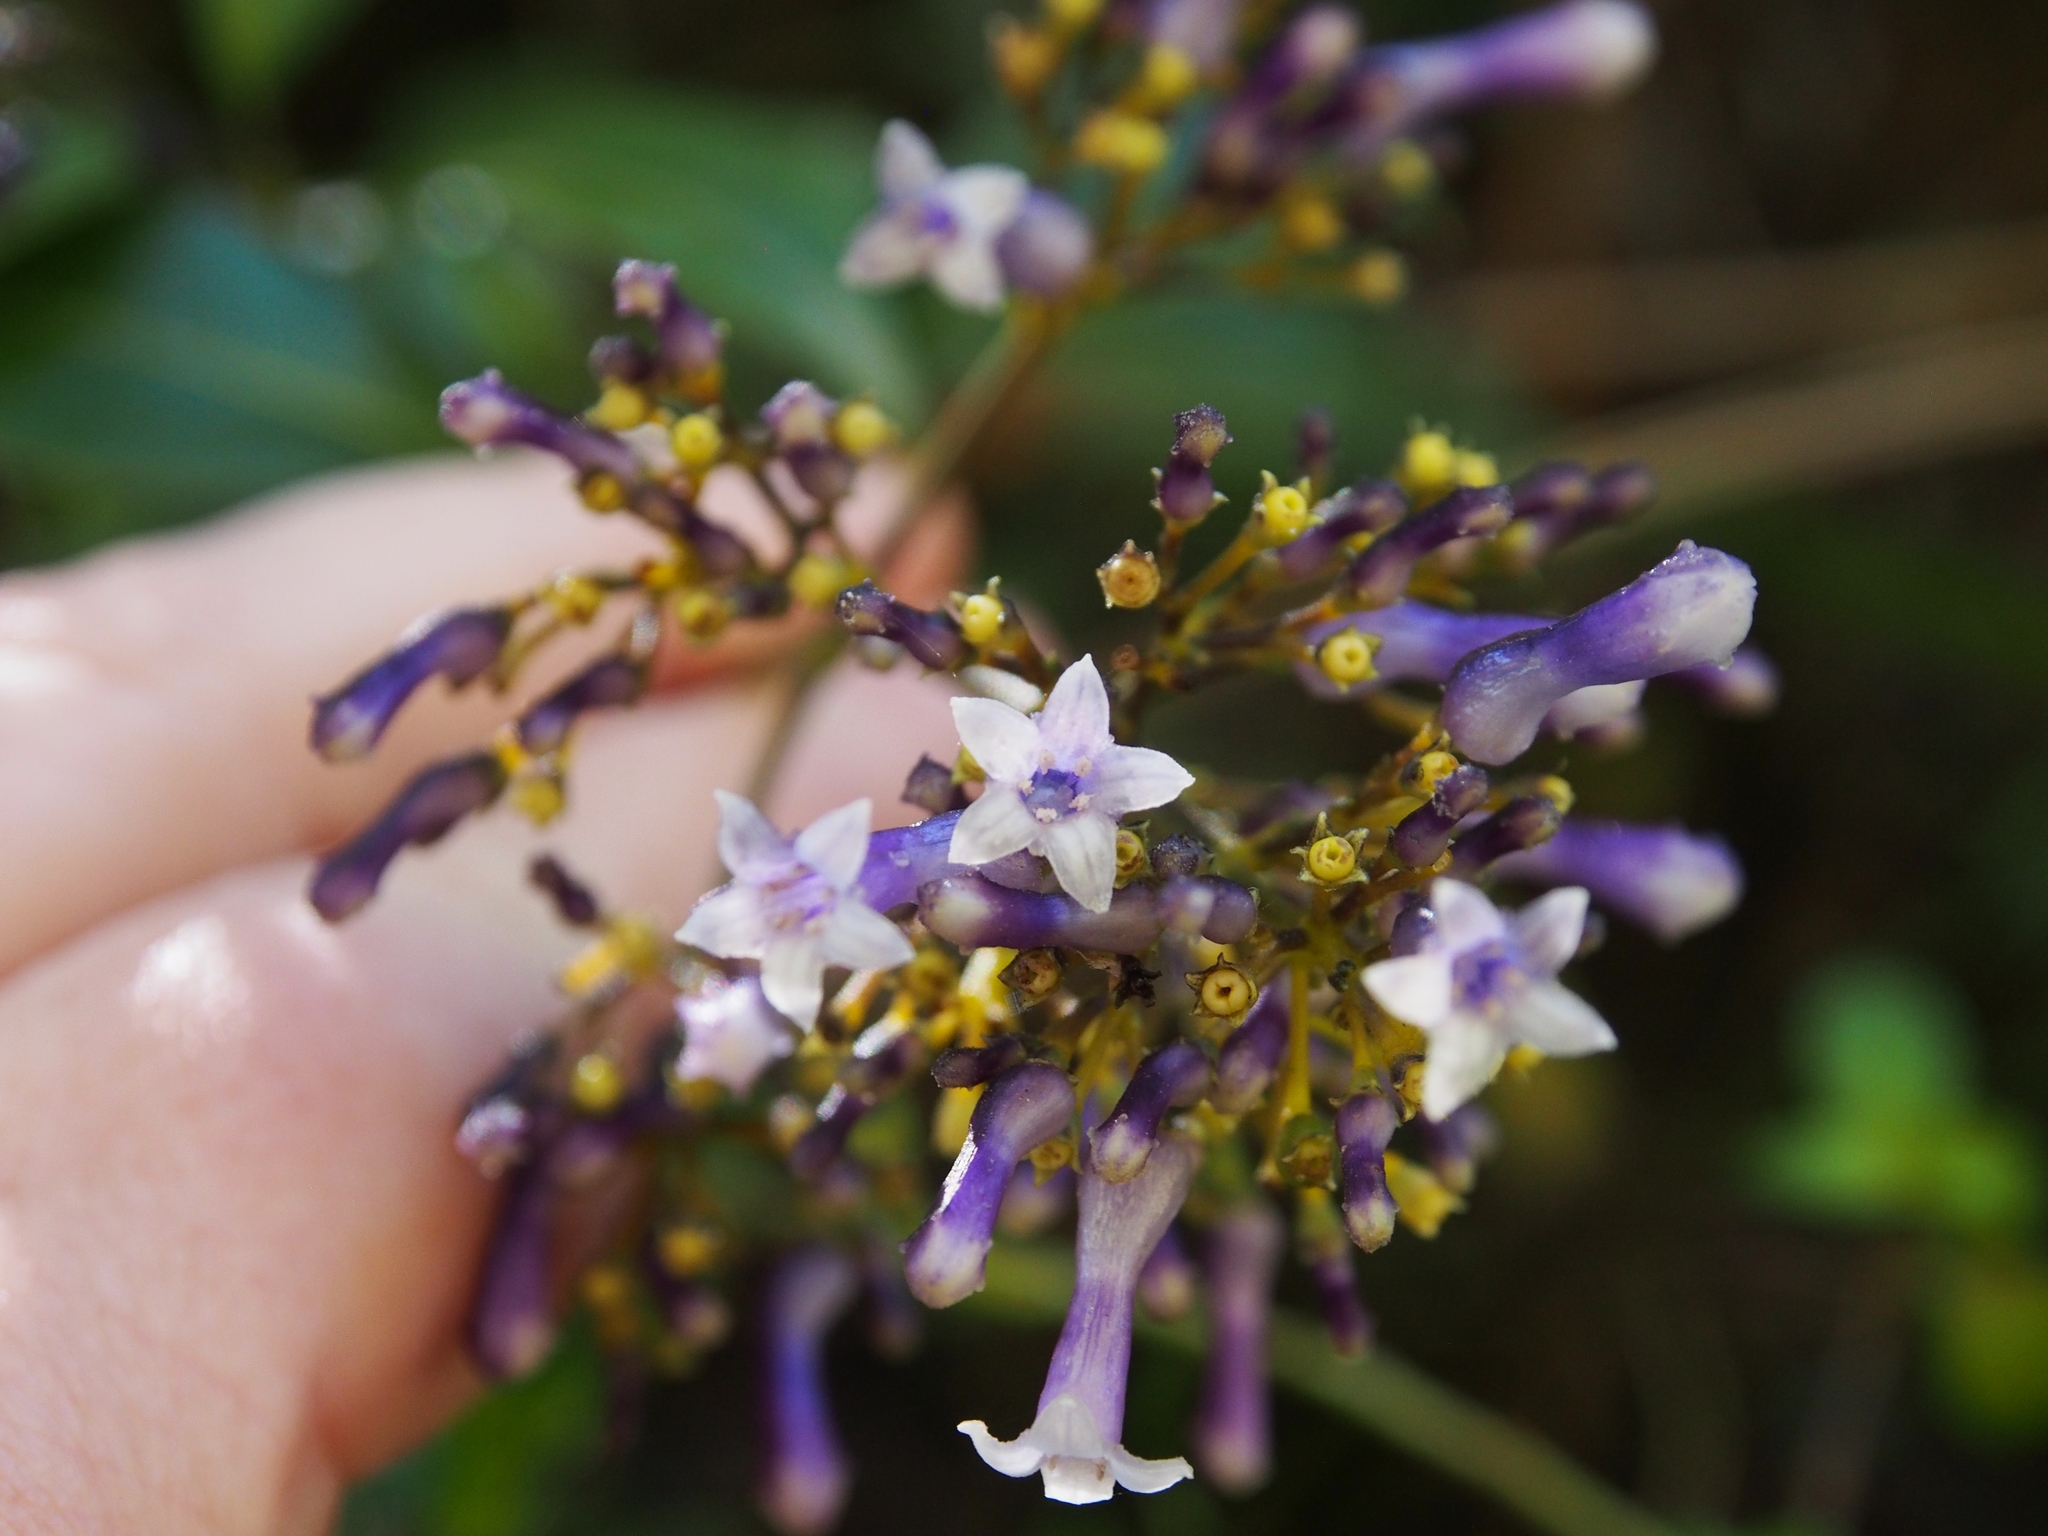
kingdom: Plantae
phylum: Tracheophyta
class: Magnoliopsida
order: Gentianales
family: Rubiaceae
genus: Palicourea
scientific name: Palicourea adusta
